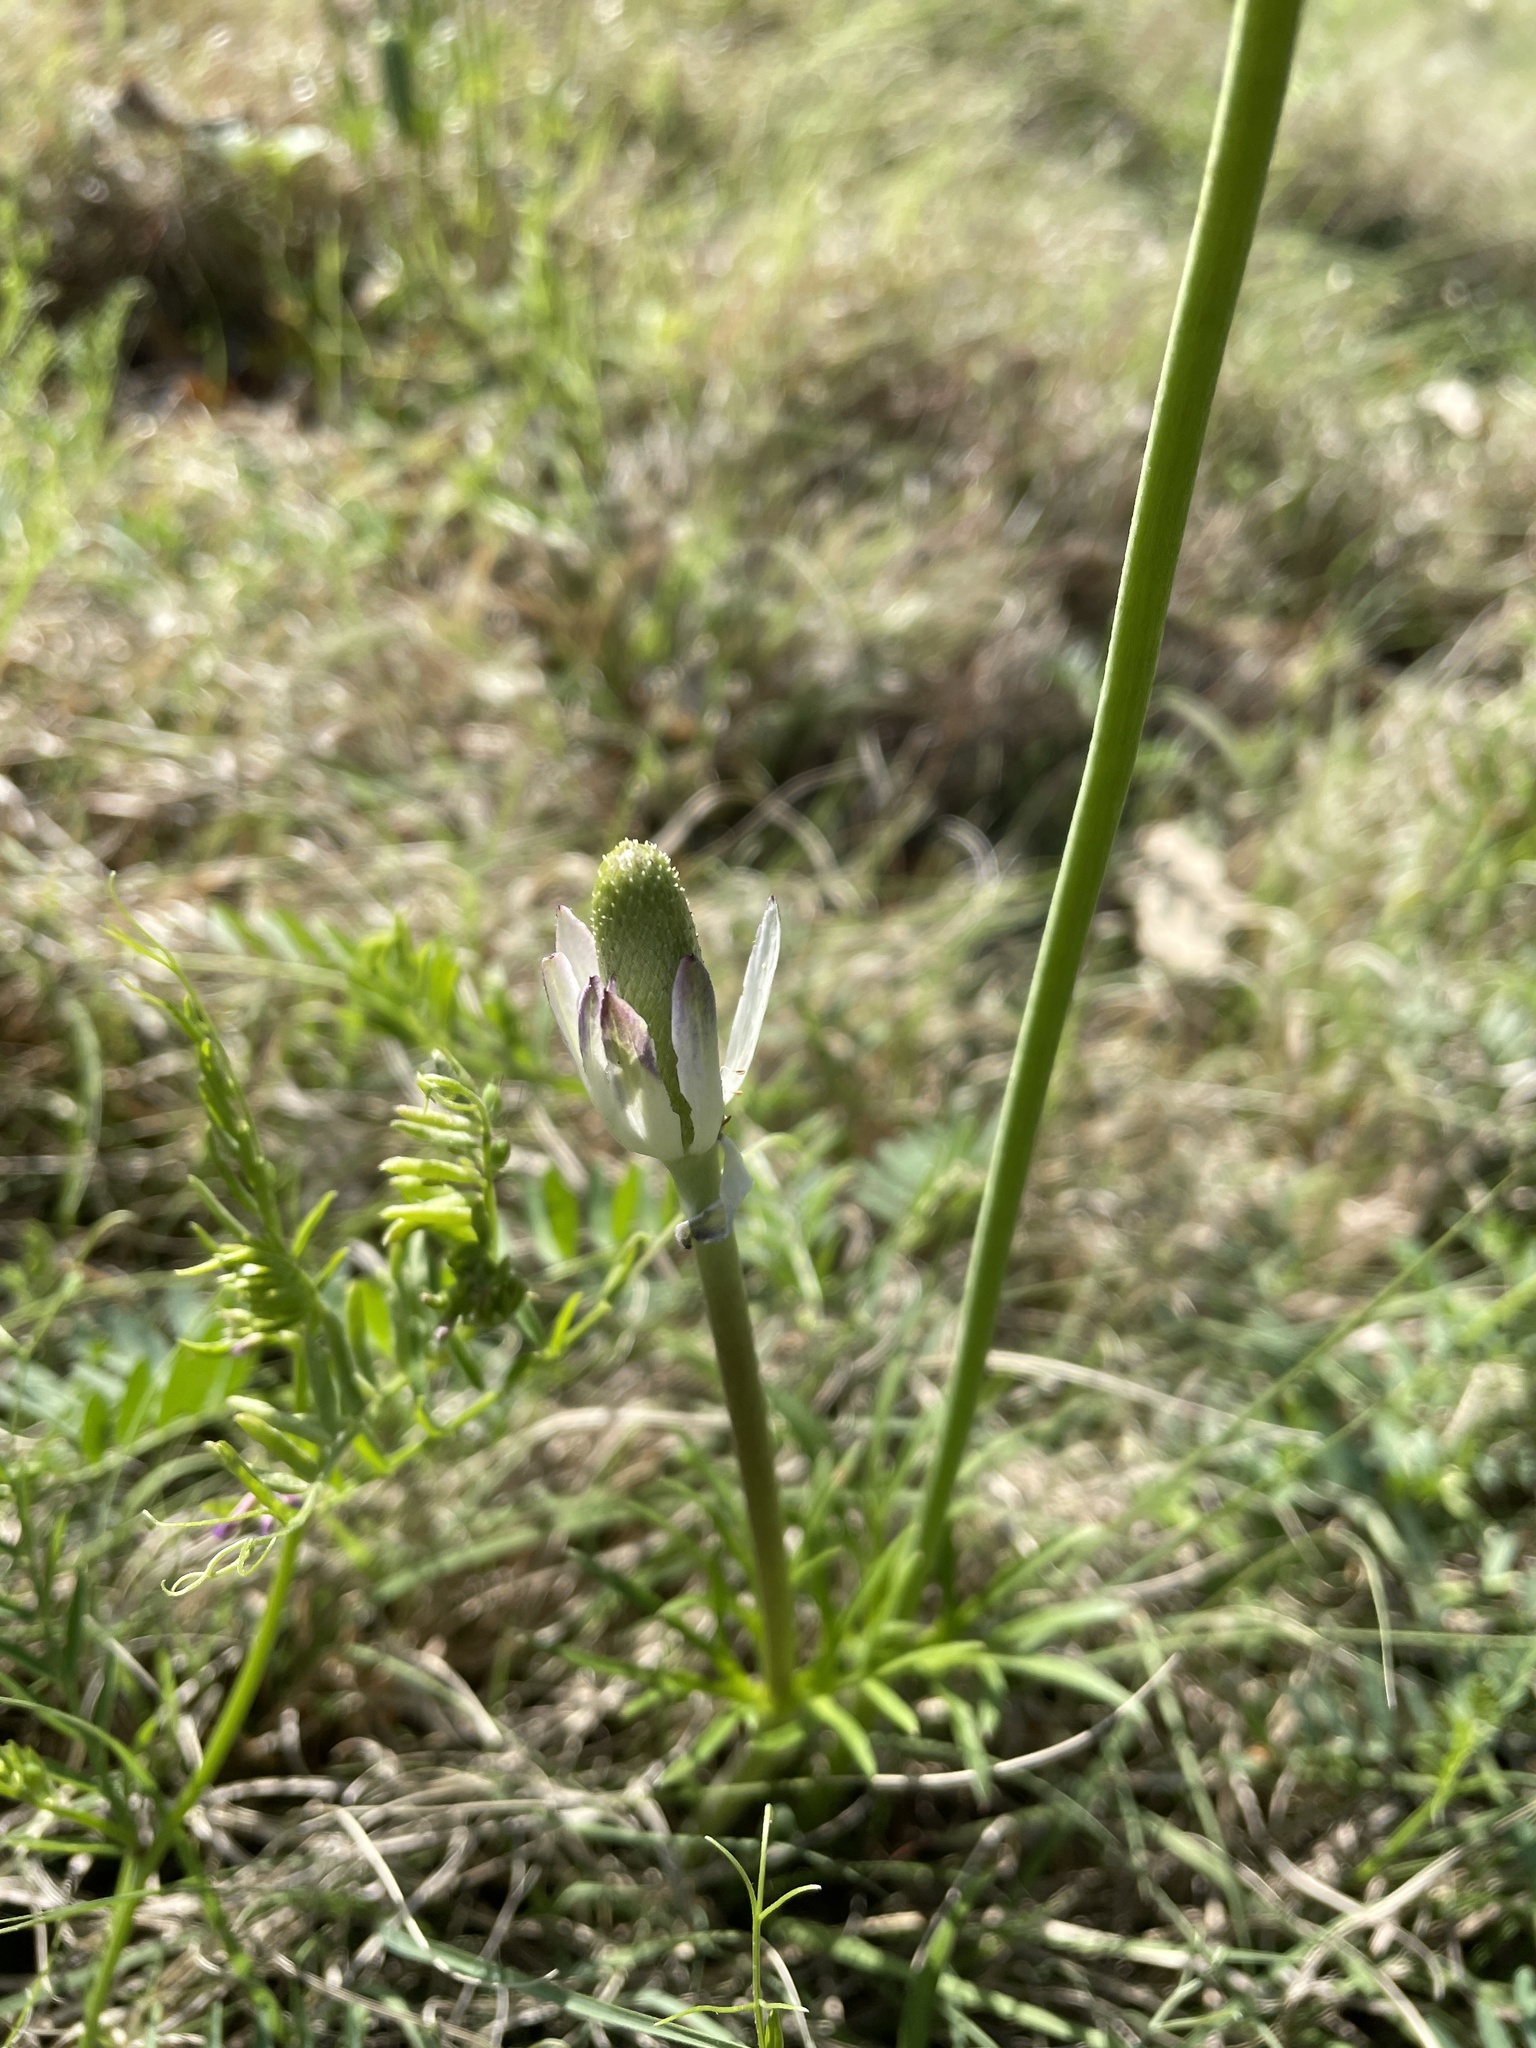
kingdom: Plantae
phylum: Tracheophyta
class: Magnoliopsida
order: Ranunculales
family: Ranunculaceae
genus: Anemone
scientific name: Anemone berlandieri
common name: Ten-petal anemone
